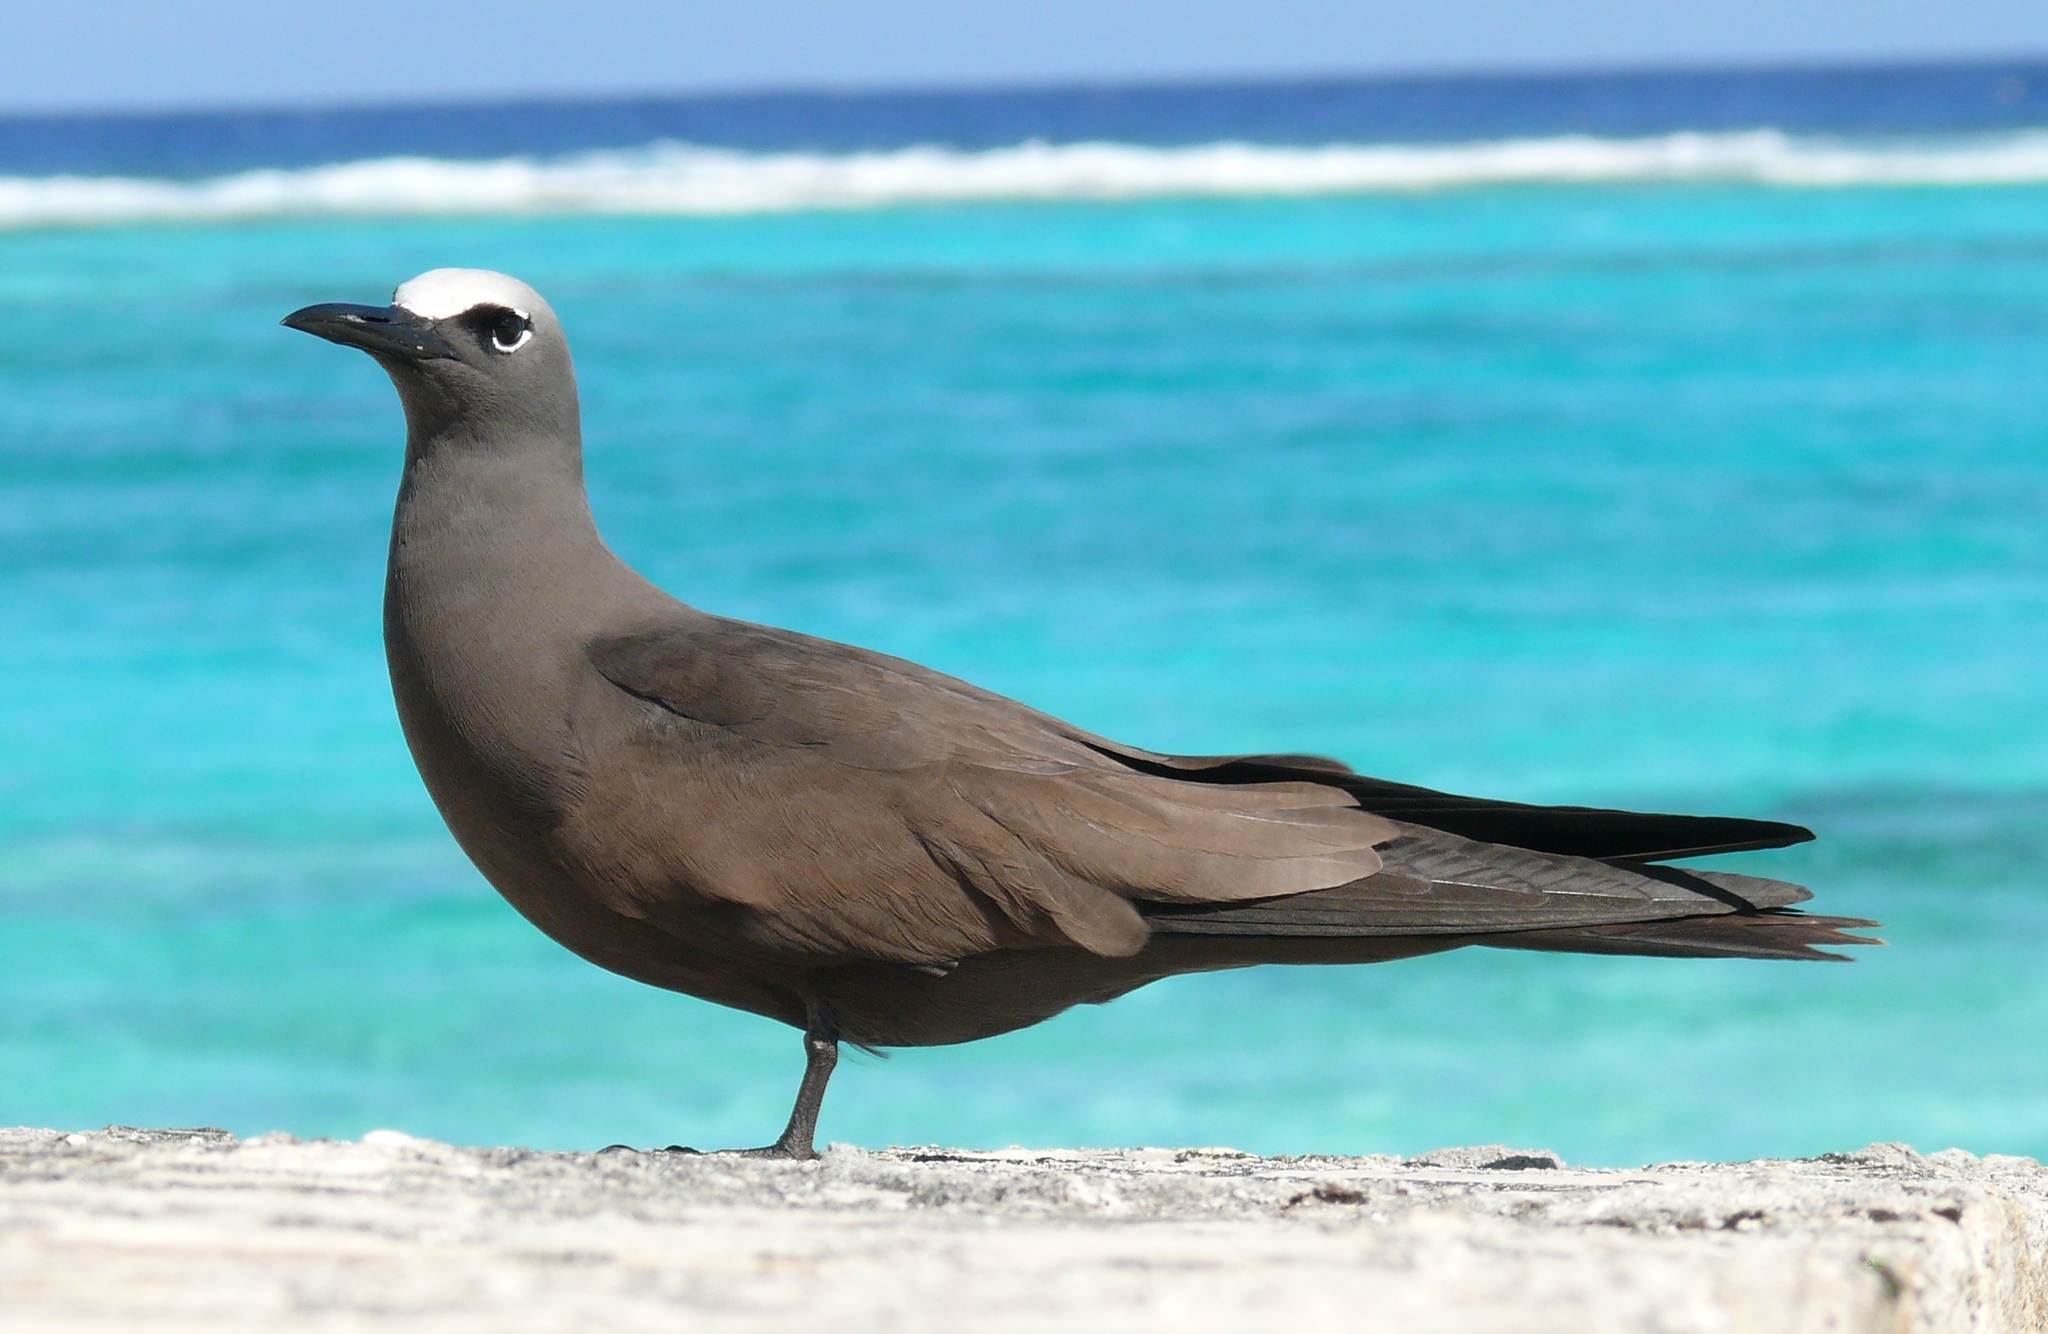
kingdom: Animalia
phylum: Chordata
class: Aves
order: Charadriiformes
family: Laridae
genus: Anous
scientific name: Anous stolidus
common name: Brown noddy
